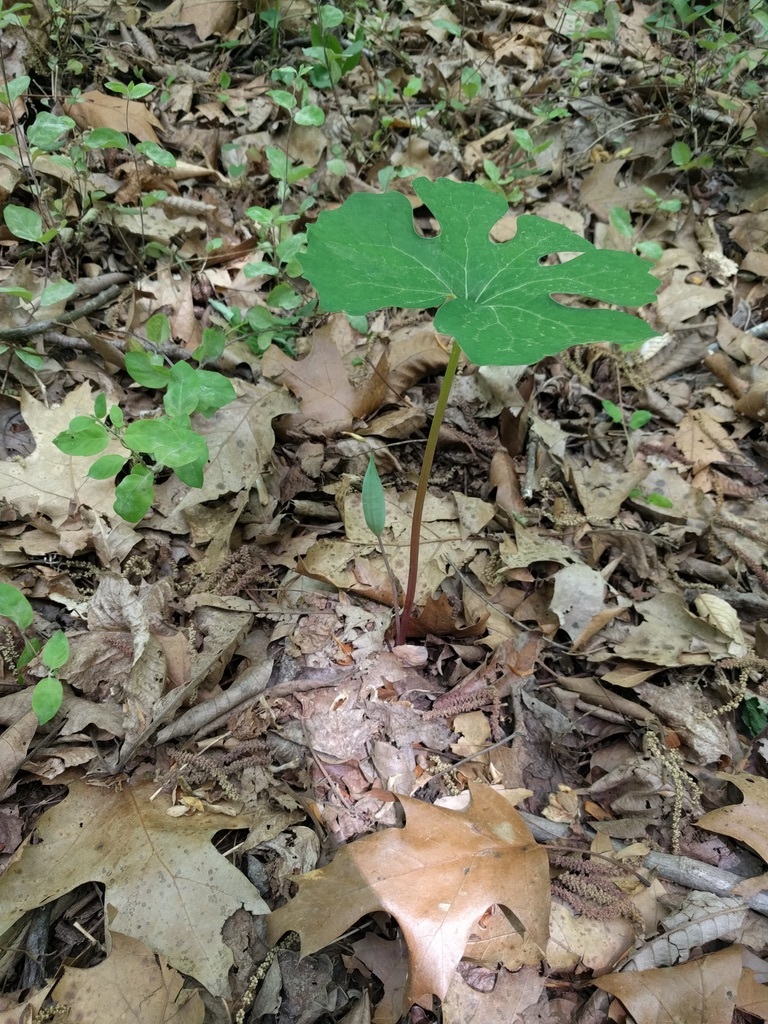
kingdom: Plantae
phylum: Tracheophyta
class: Magnoliopsida
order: Ranunculales
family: Papaveraceae
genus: Sanguinaria
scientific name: Sanguinaria canadensis
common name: Bloodroot
